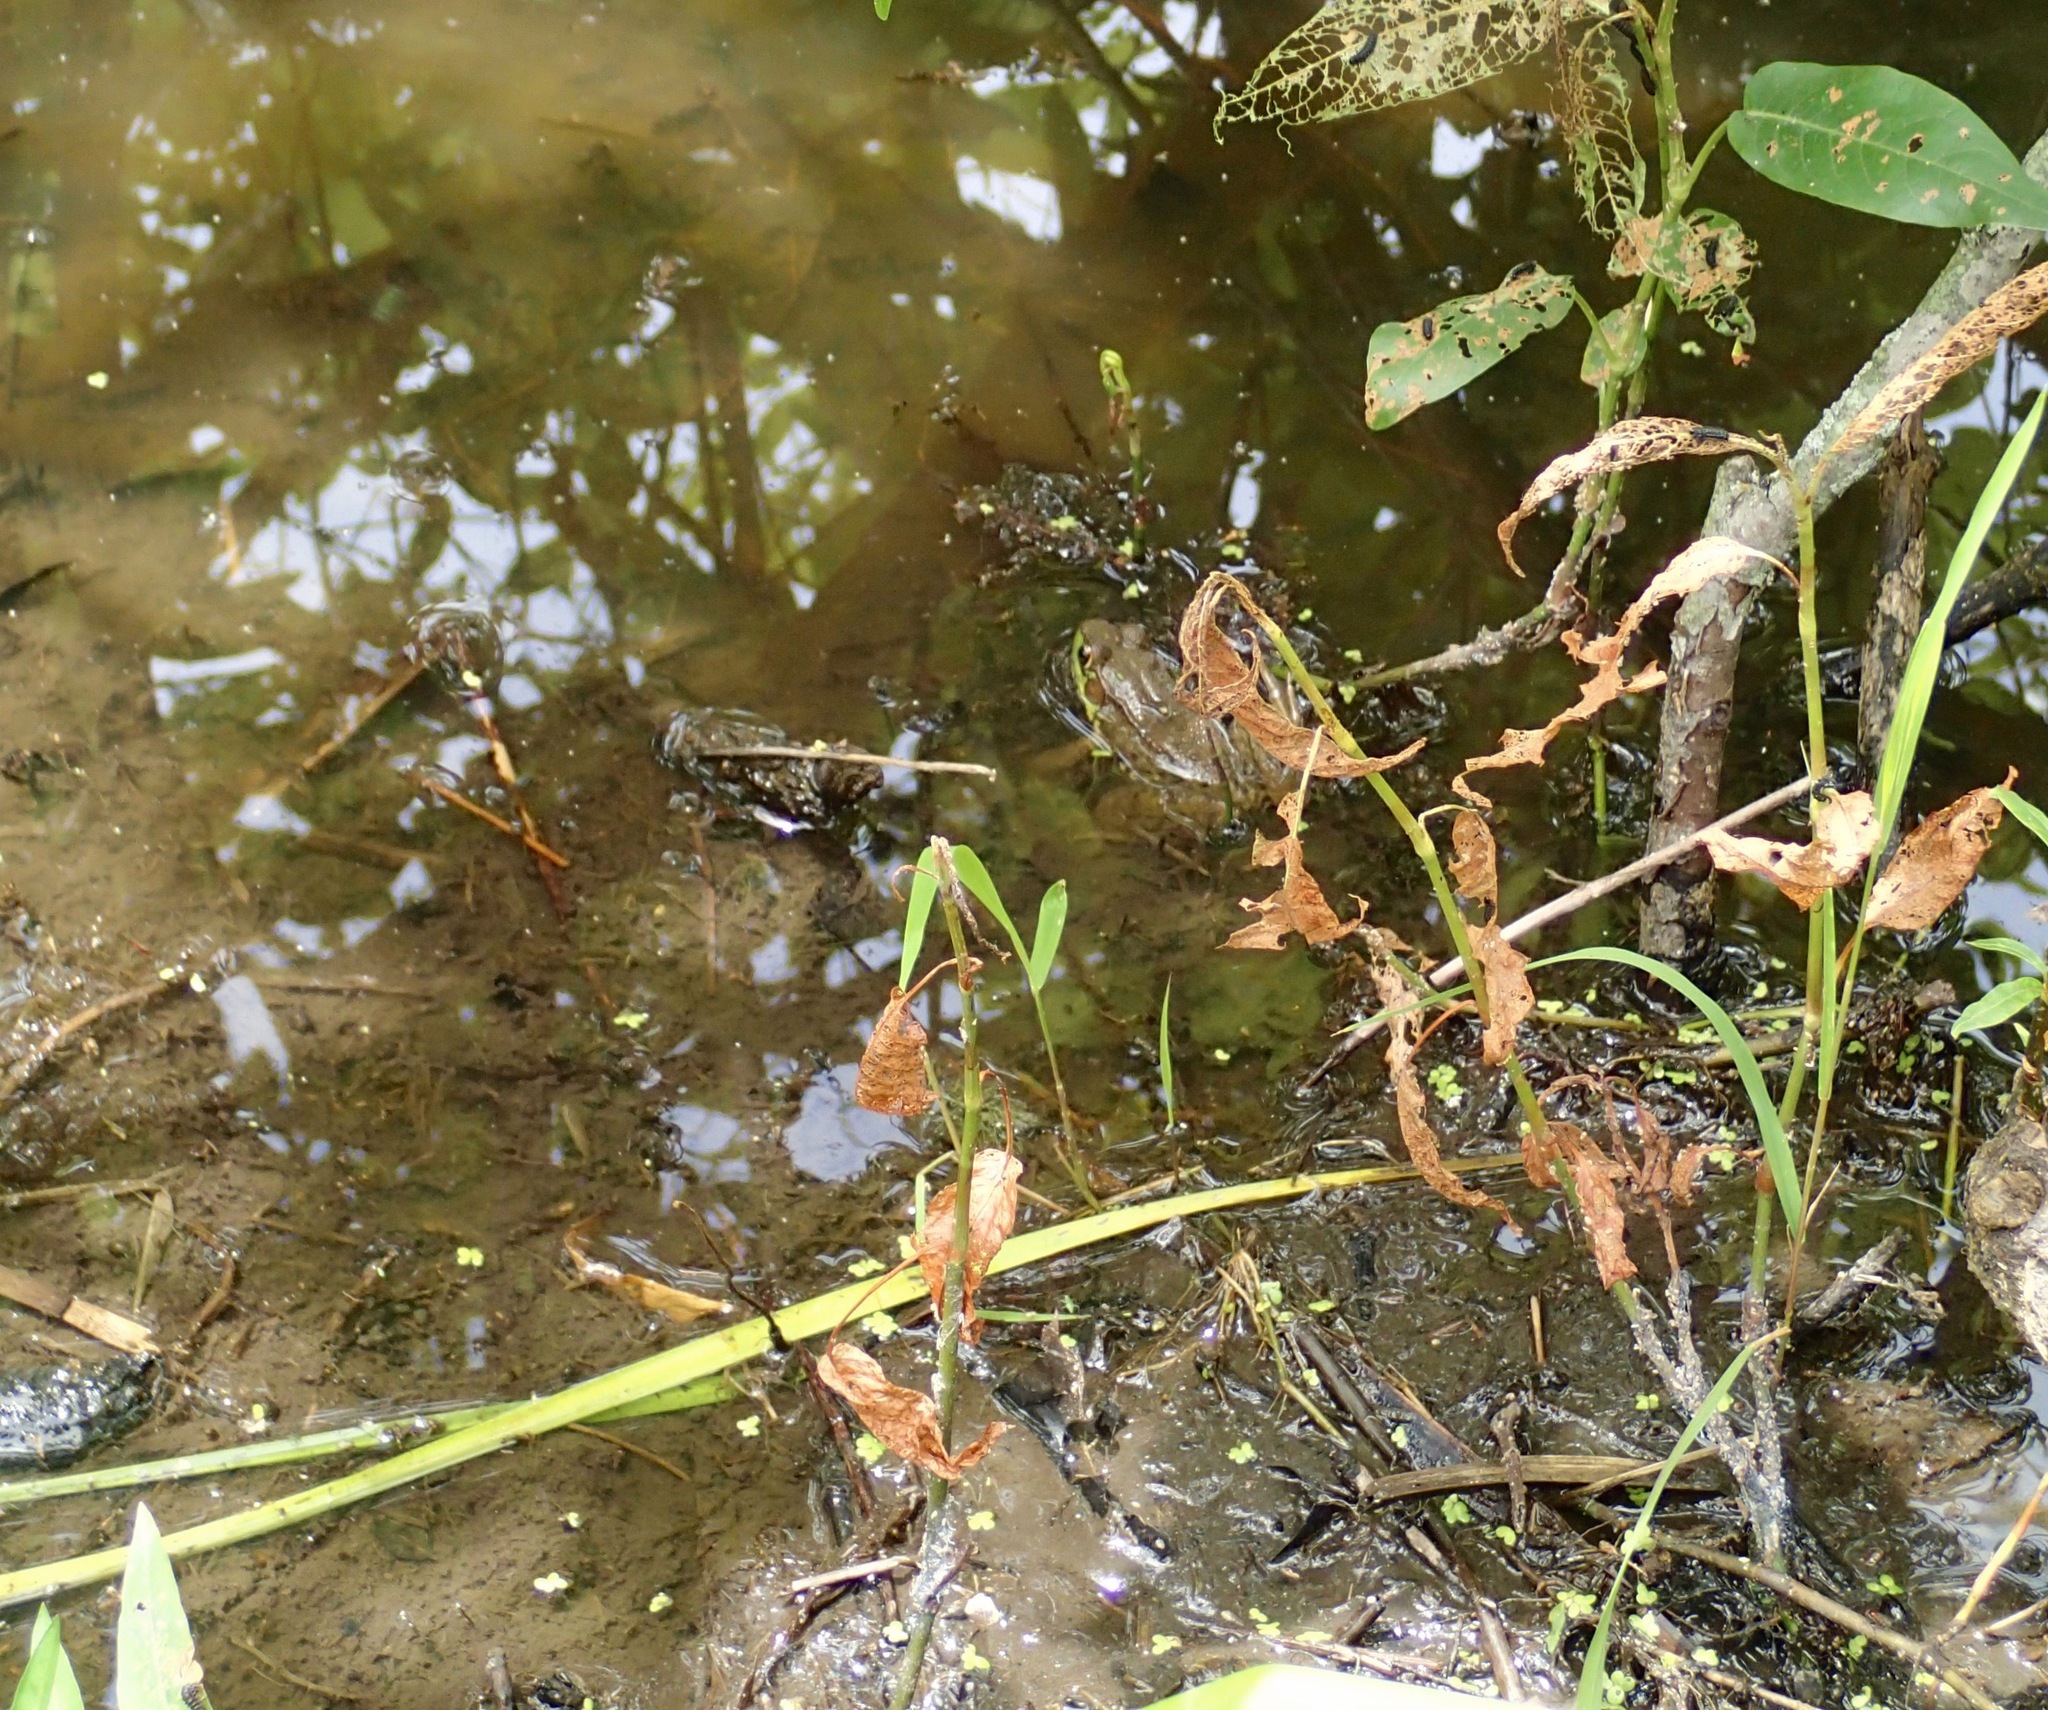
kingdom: Animalia
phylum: Chordata
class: Amphibia
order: Anura
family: Ranidae
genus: Lithobates
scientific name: Lithobates clamitans
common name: Green frog
